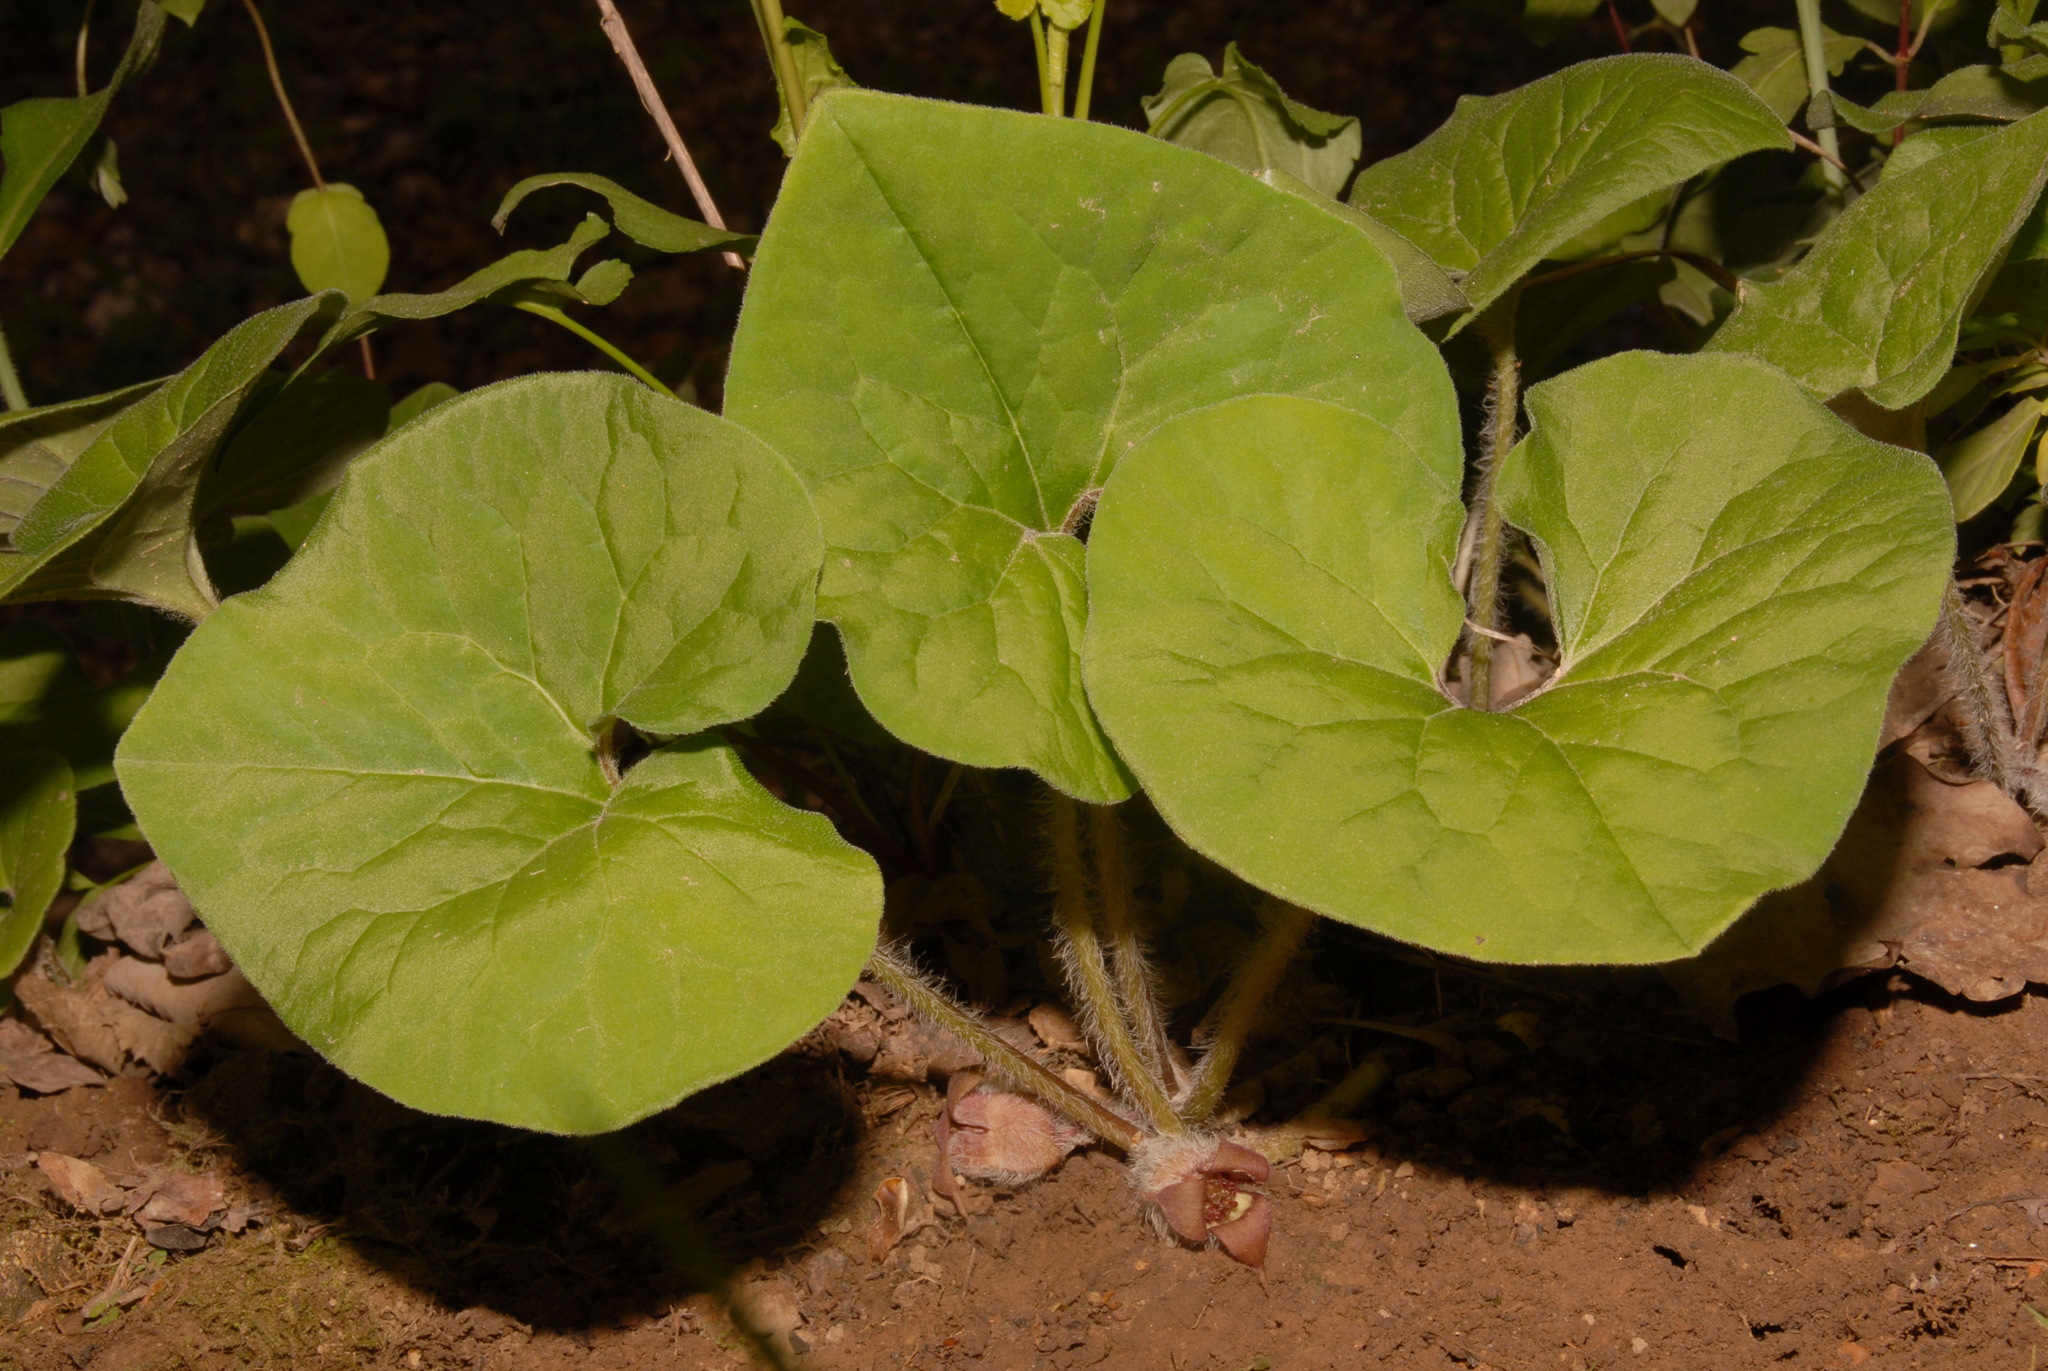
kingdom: Plantae
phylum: Tracheophyta
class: Magnoliopsida
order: Piperales
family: Aristolochiaceae
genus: Asarum
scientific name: Asarum canadense
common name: Wild ginger
